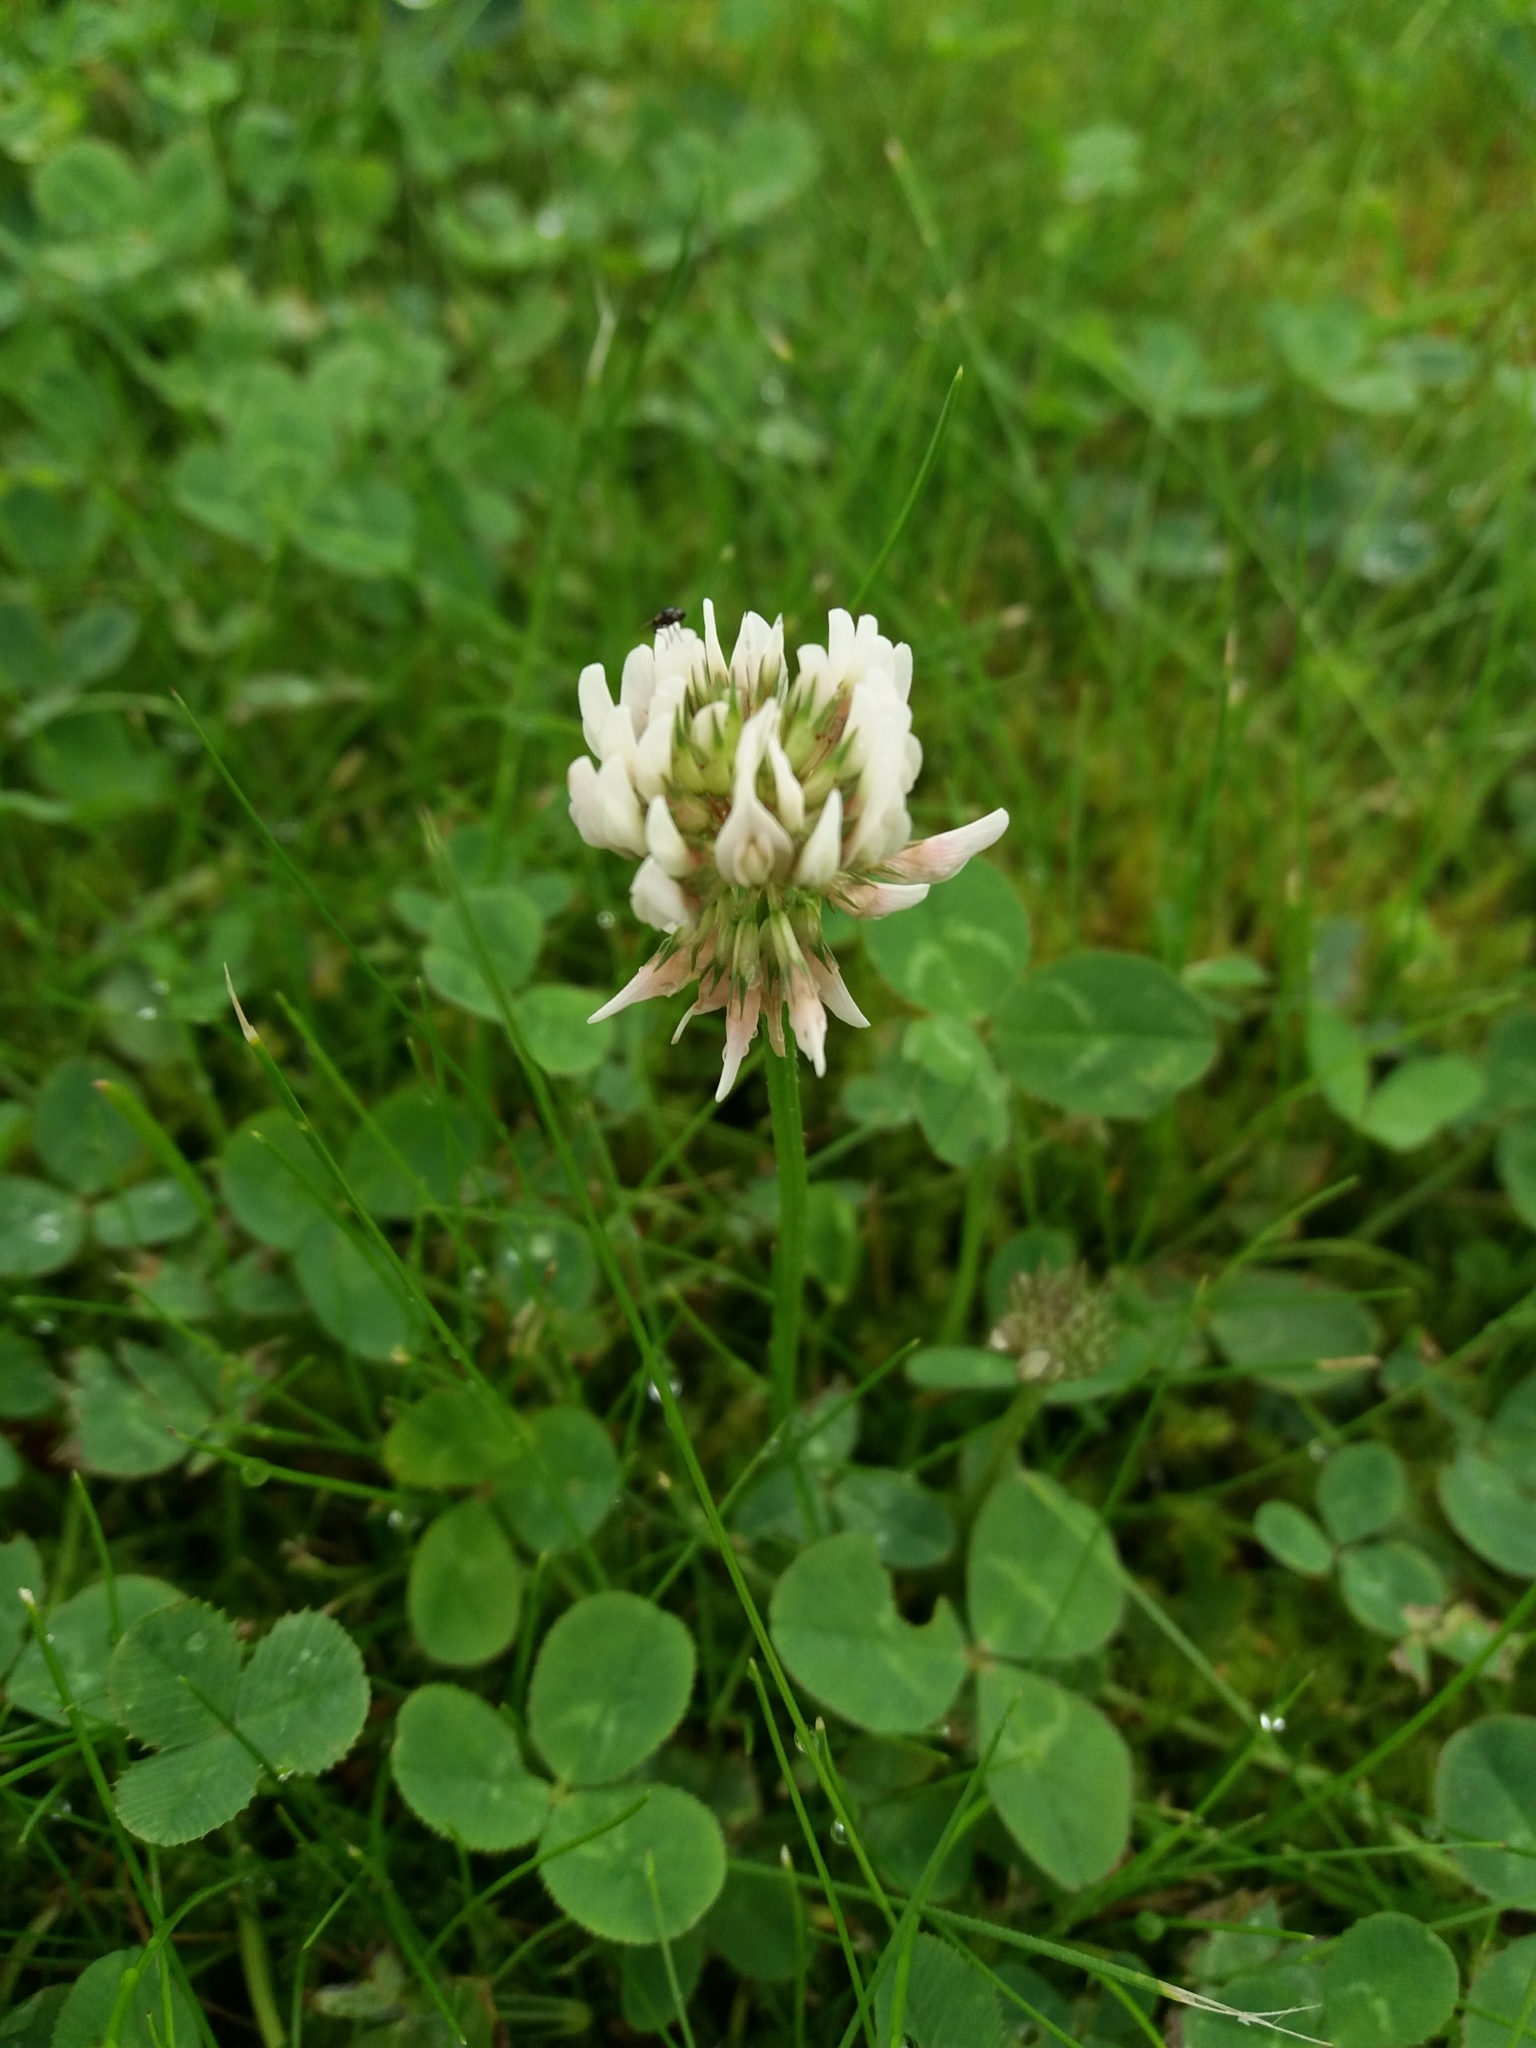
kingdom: Plantae
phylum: Tracheophyta
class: Magnoliopsida
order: Fabales
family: Fabaceae
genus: Trifolium
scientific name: Trifolium repens
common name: White clover
